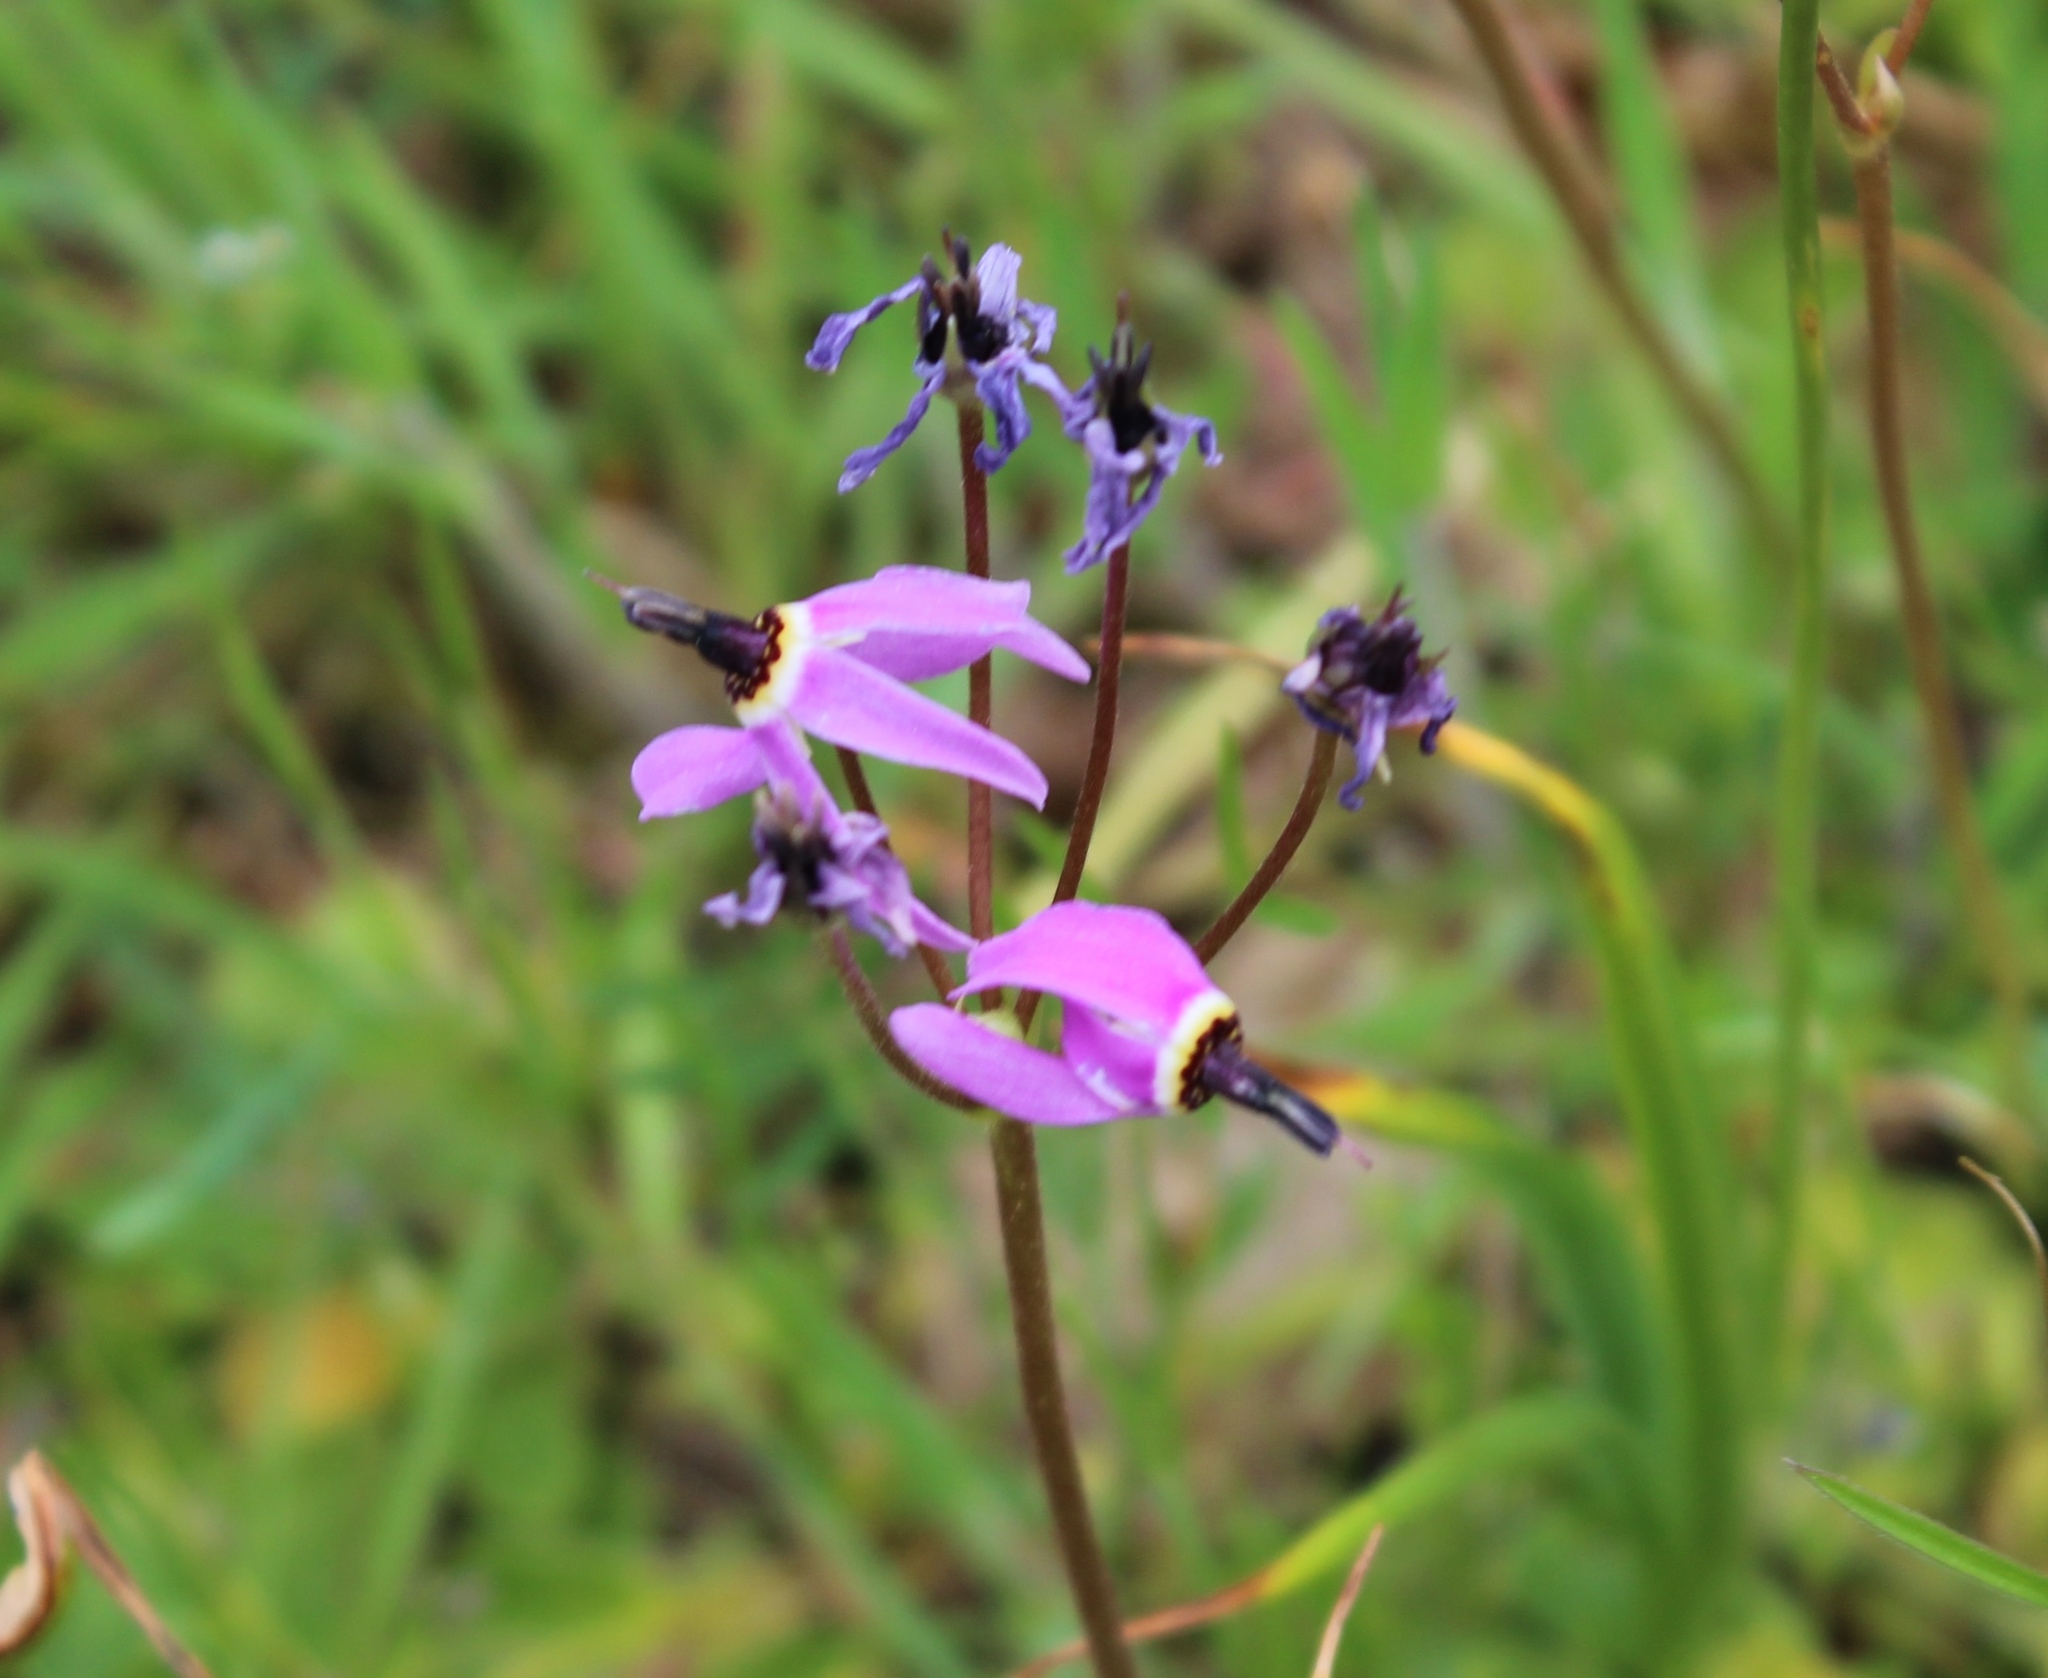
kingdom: Plantae
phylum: Tracheophyta
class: Magnoliopsida
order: Ericales
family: Primulaceae
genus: Dodecatheon
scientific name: Dodecatheon hendersonii
